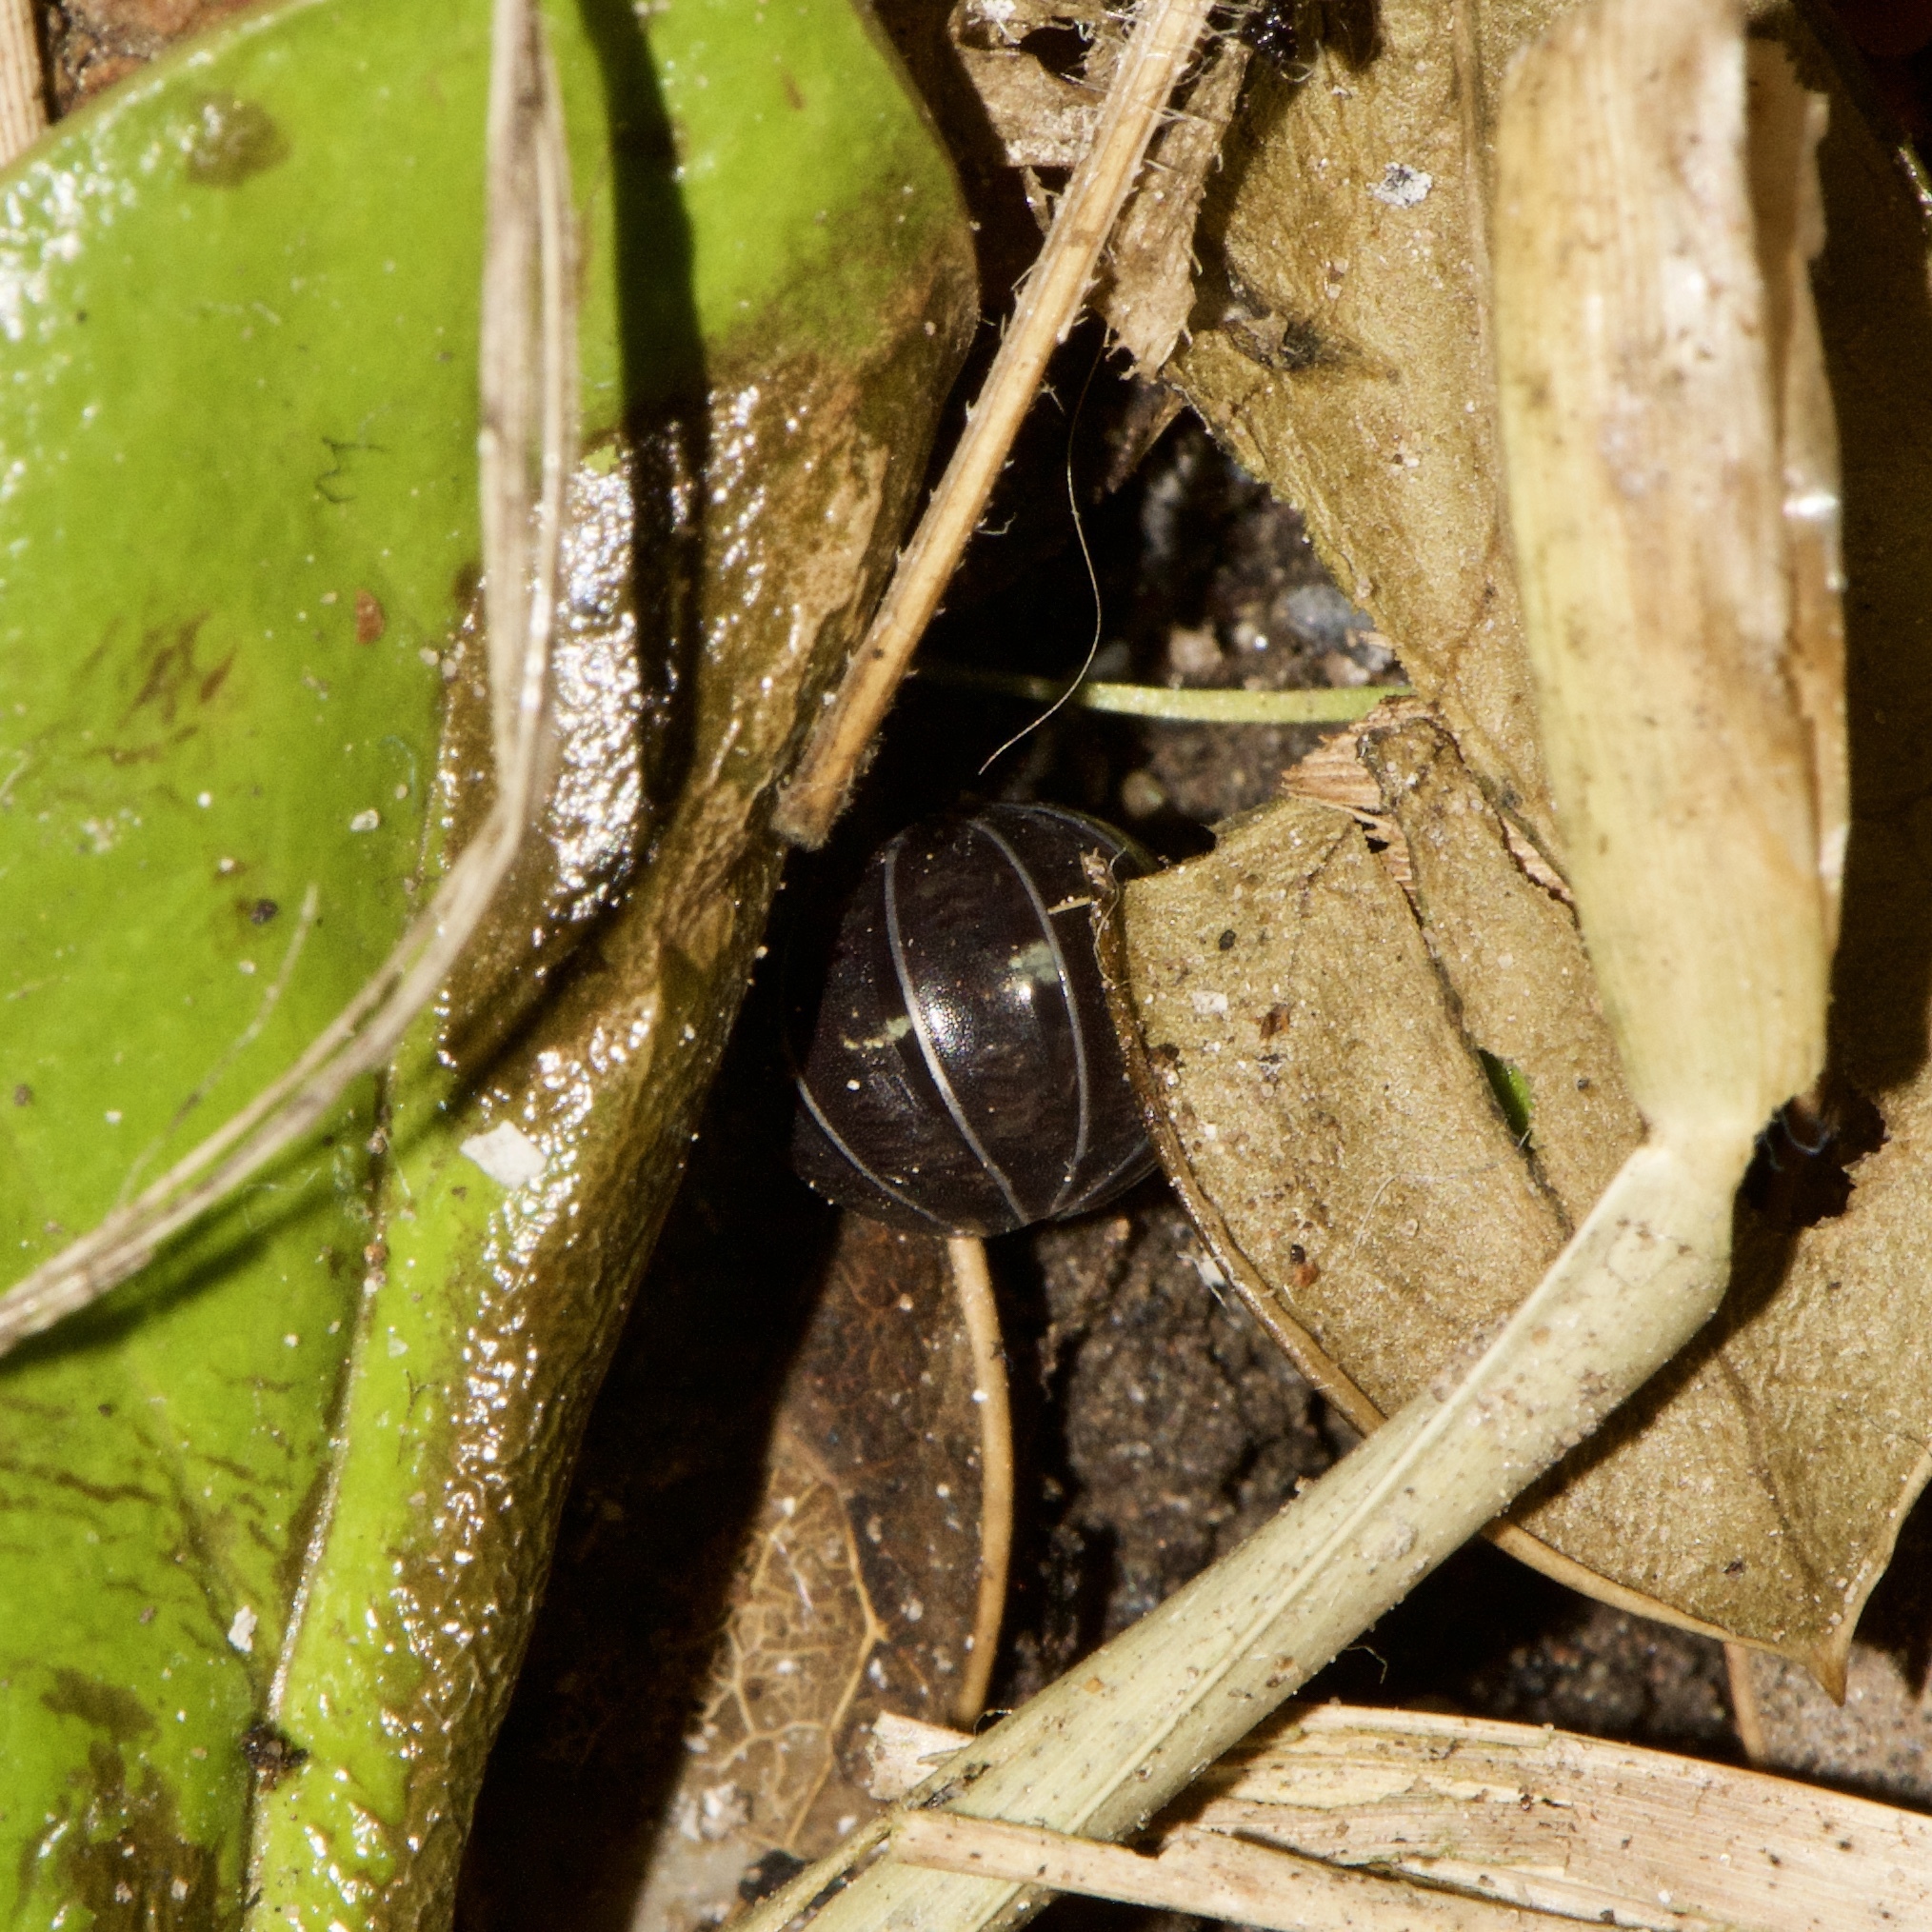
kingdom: Animalia
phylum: Arthropoda
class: Malacostraca
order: Isopoda
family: Armadillidiidae
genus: Armadillidium
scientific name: Armadillidium vulgare
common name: Common pill woodlouse
